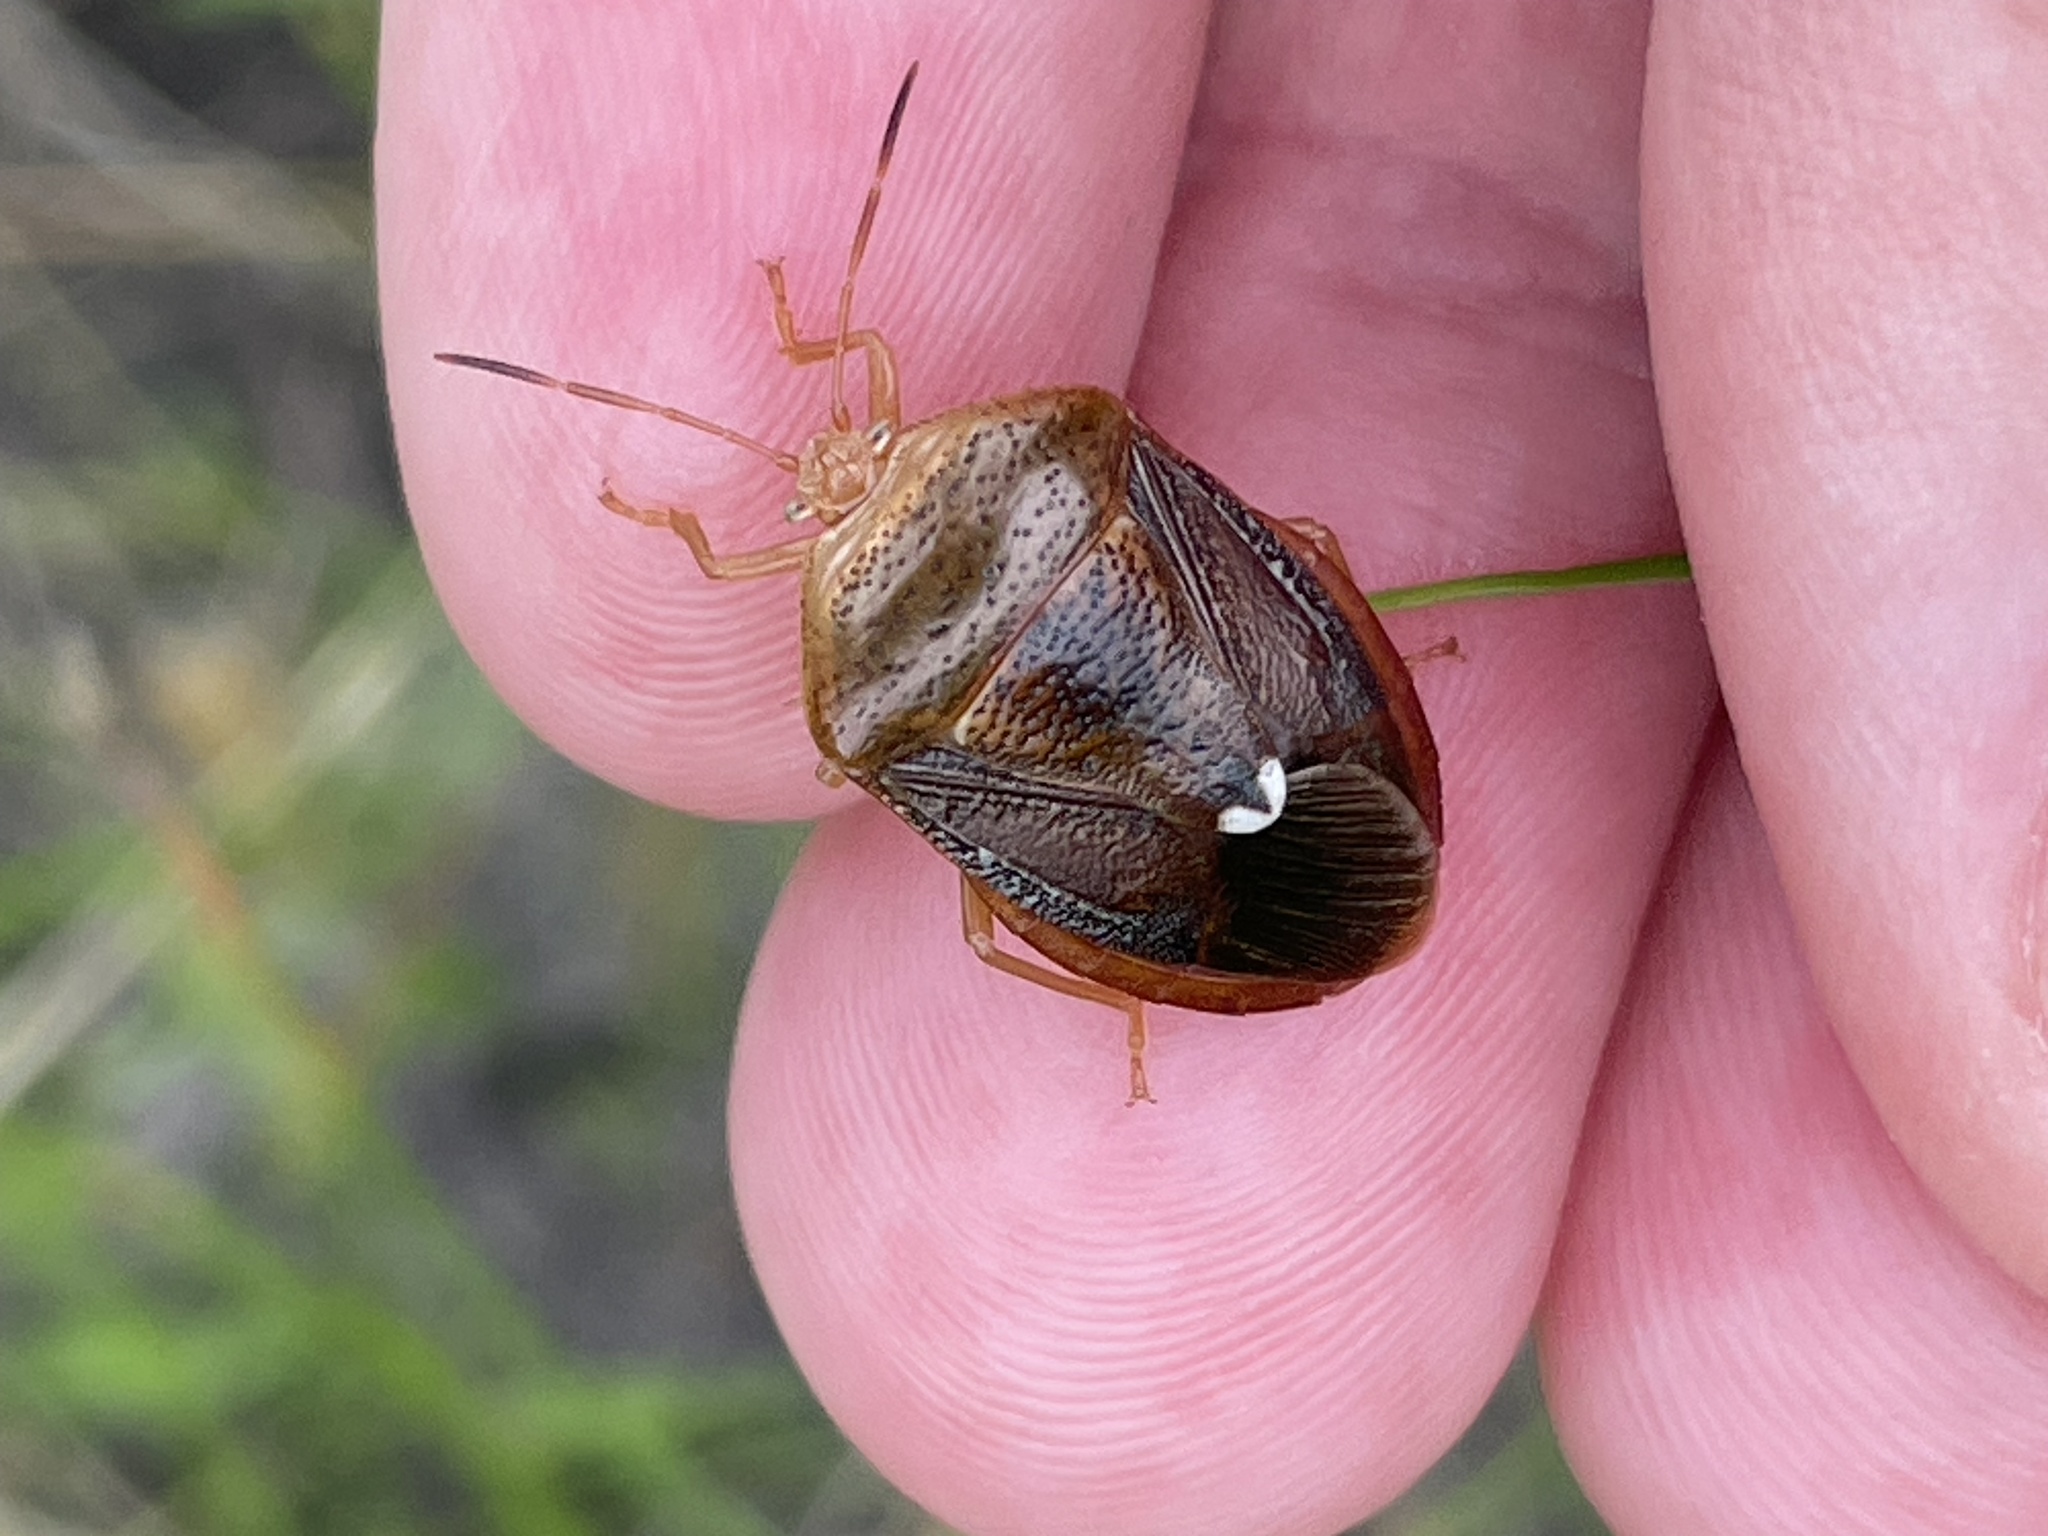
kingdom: Animalia
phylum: Arthropoda
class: Insecta
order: Hemiptera
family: Pentatomidae
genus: Edessa
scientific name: Edessa bifida
